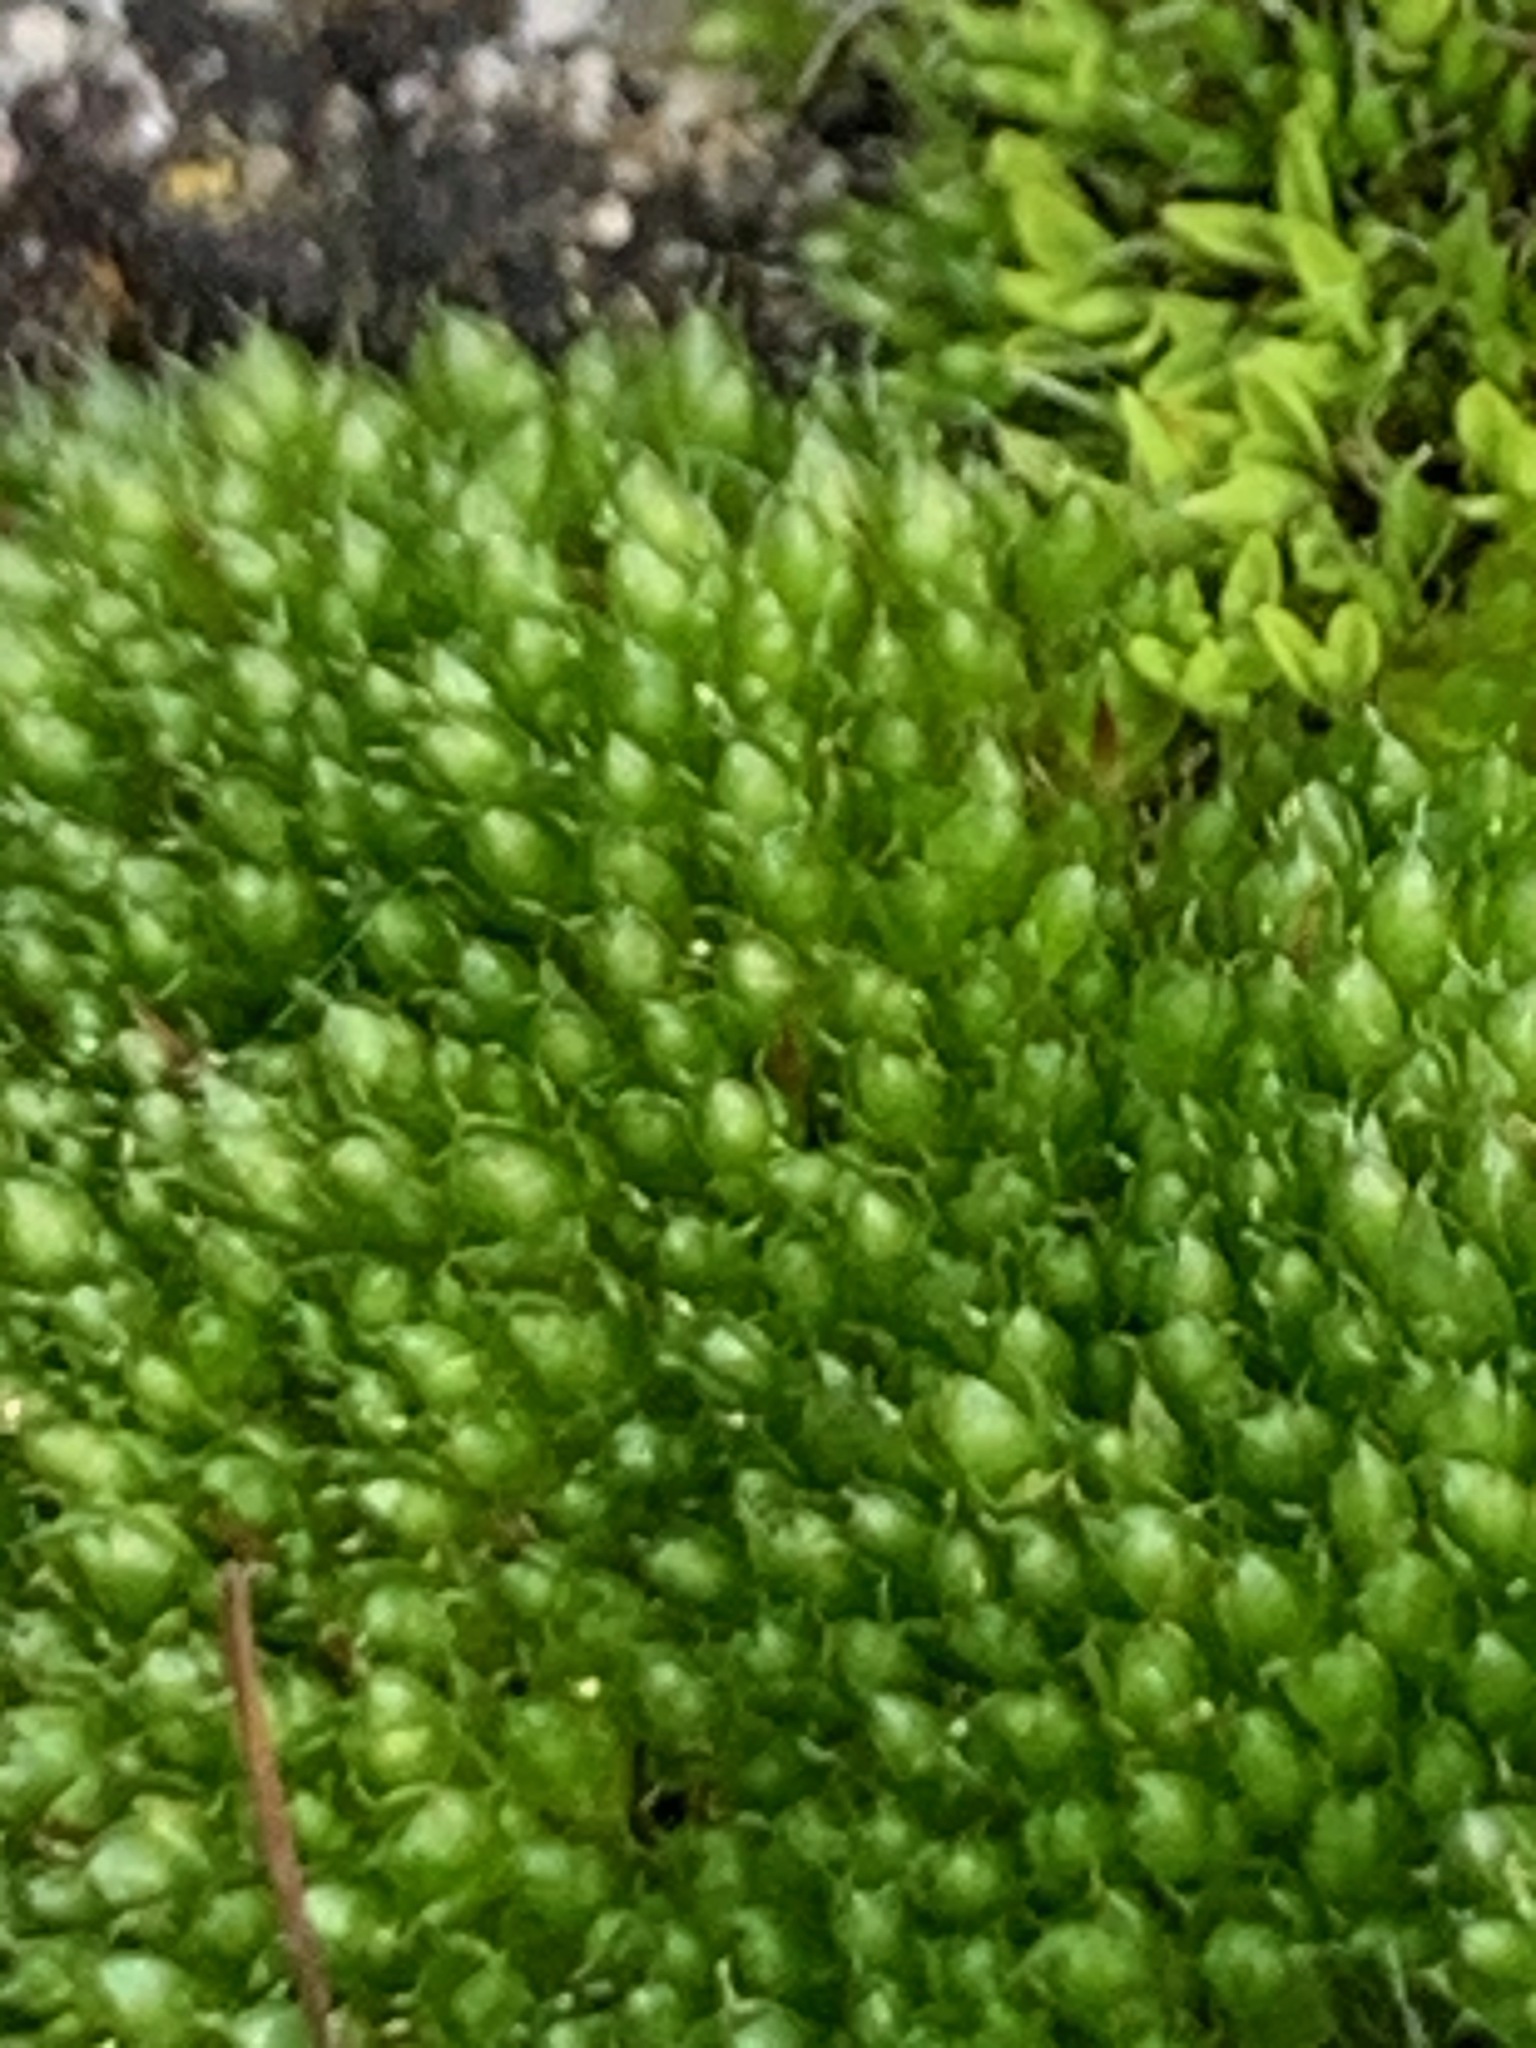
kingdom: Plantae
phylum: Bryophyta
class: Bryopsida
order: Bryales
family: Bryaceae
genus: Rosulabryum
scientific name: Rosulabryum capillare
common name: Capillary thread-moss
